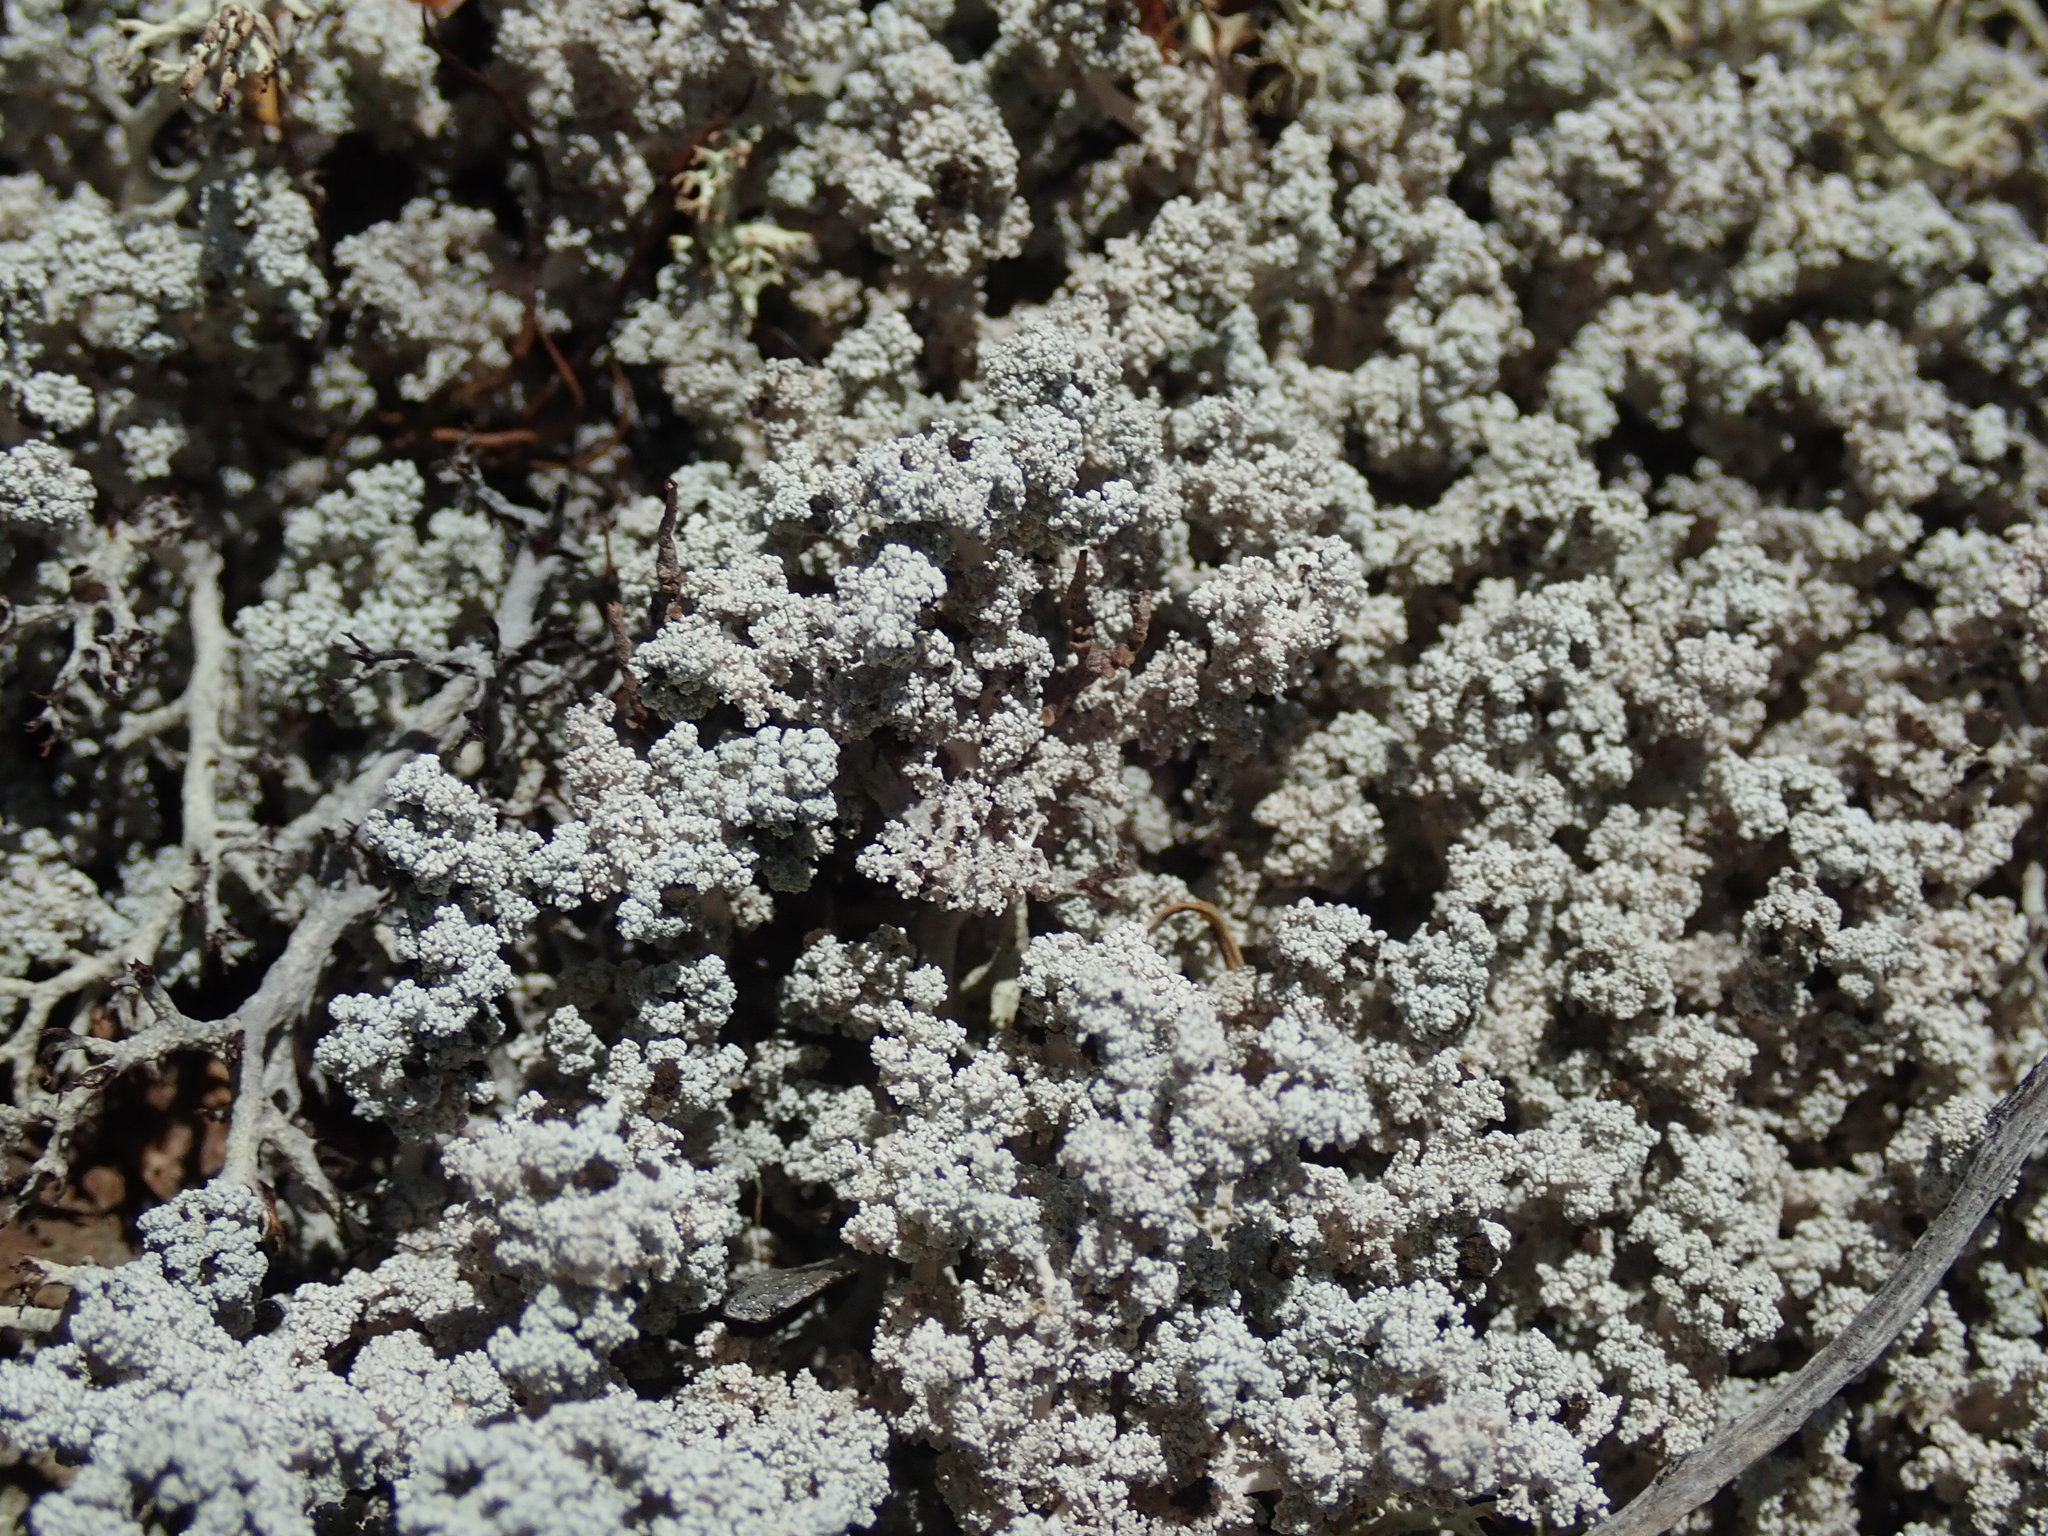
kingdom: Fungi
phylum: Ascomycota
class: Lecanoromycetes
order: Lecanorales
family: Stereocaulaceae
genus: Stereocaulon
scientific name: Stereocaulon tomentosum
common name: Woolly foam
